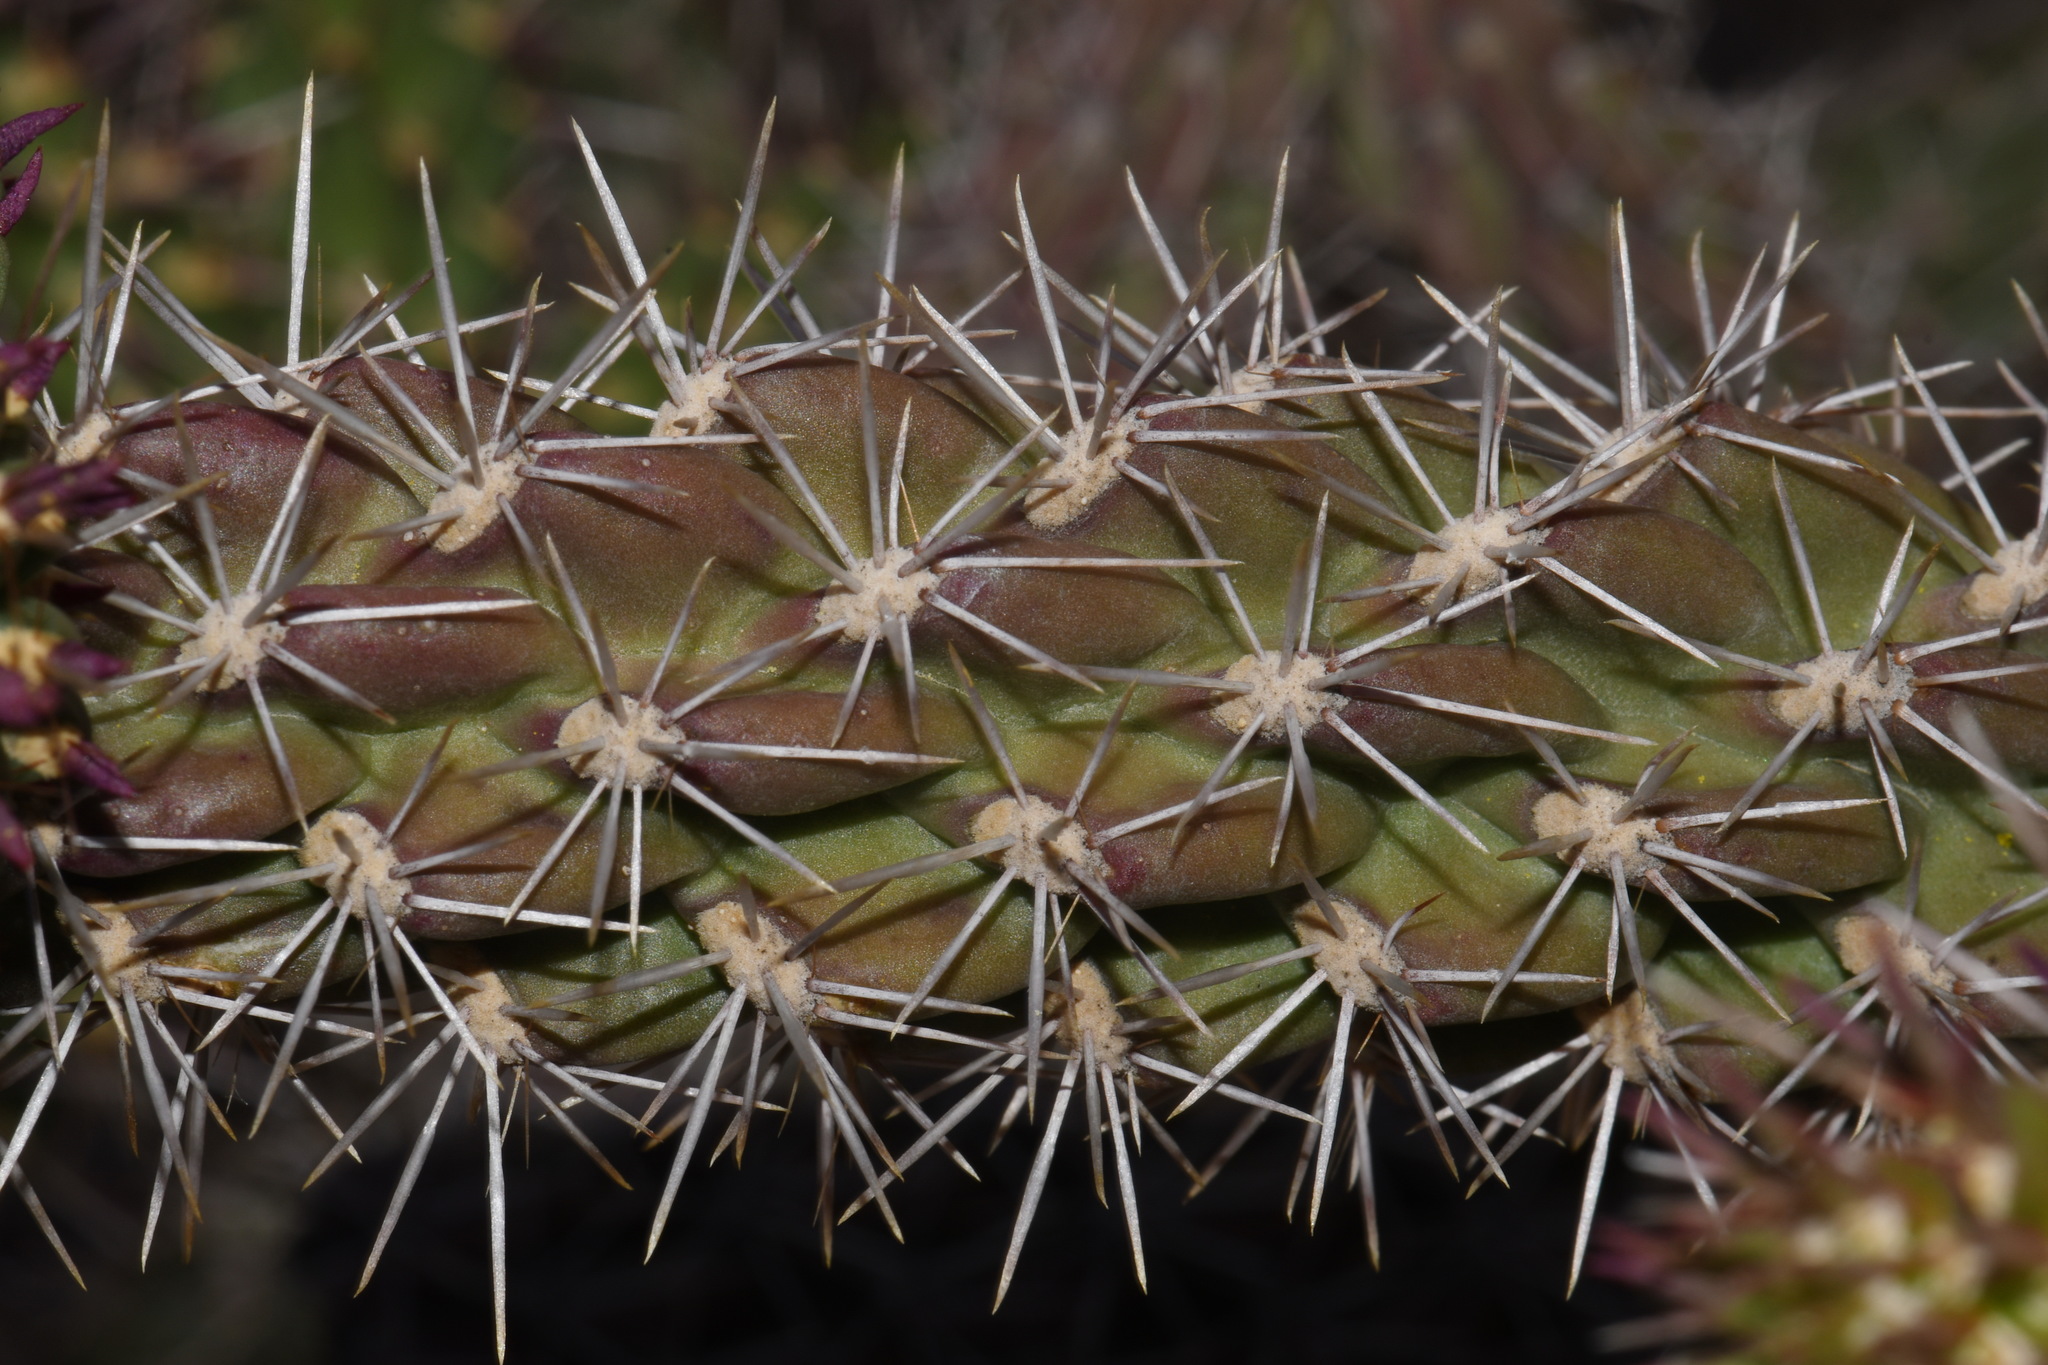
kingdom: Plantae
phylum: Tracheophyta
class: Magnoliopsida
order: Caryophyllales
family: Cactaceae
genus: Cylindropuntia
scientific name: Cylindropuntia imbricata
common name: Candelabrum cactus
